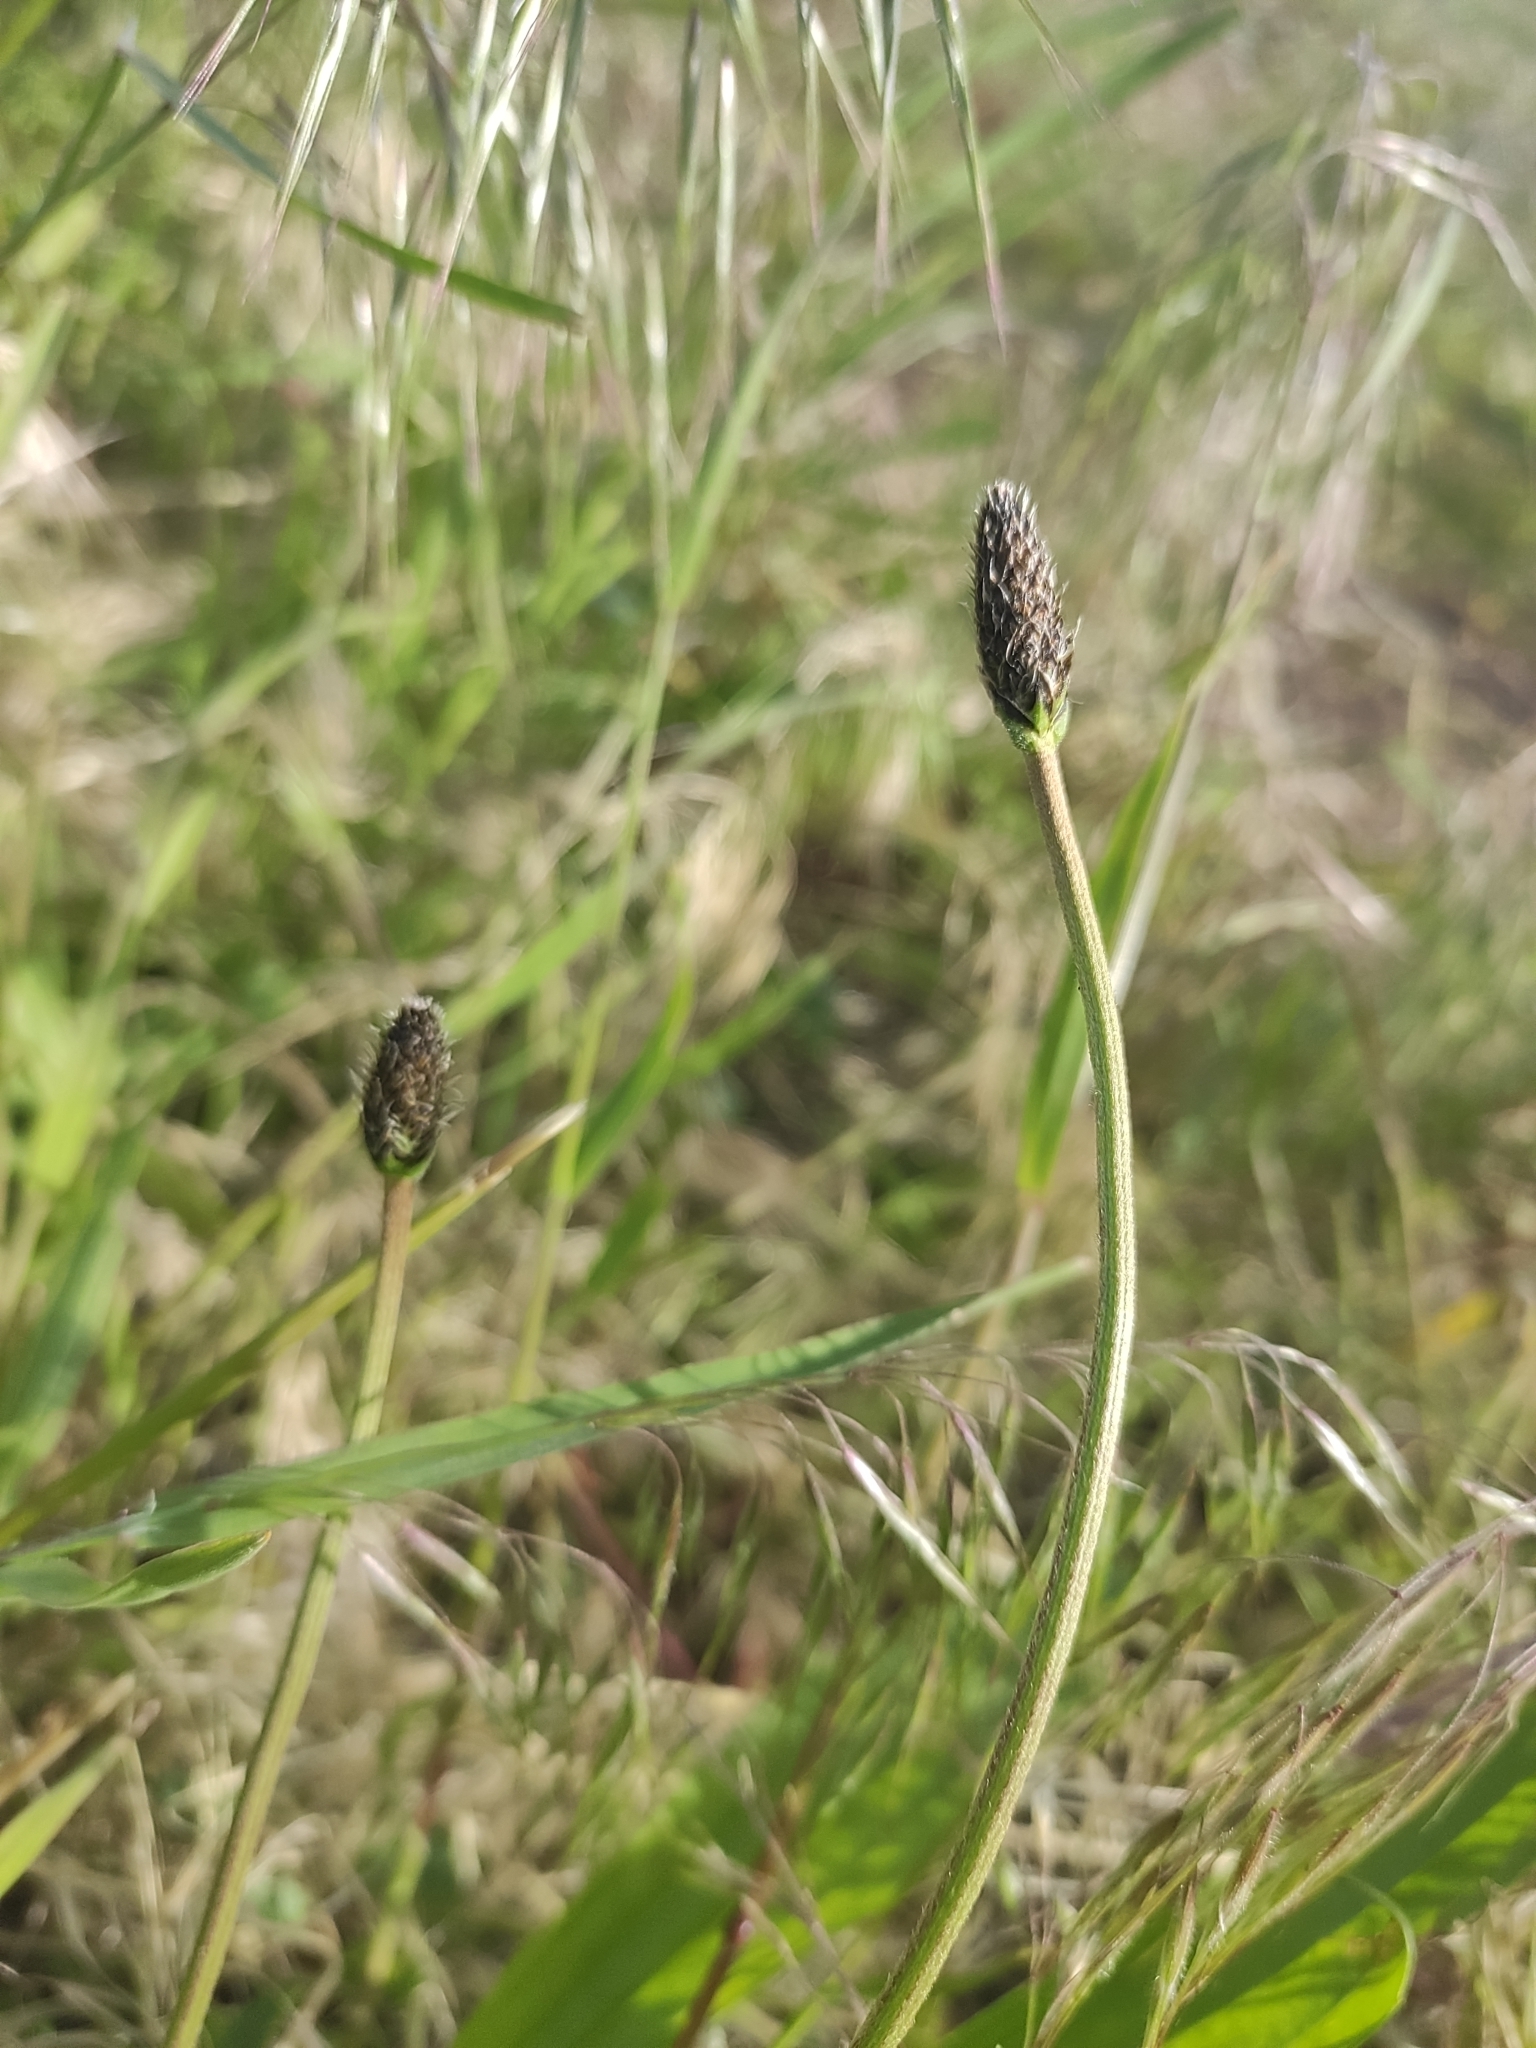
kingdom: Plantae
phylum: Tracheophyta
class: Magnoliopsida
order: Lamiales
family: Plantaginaceae
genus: Plantago
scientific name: Plantago lanceolata
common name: Ribwort plantain
